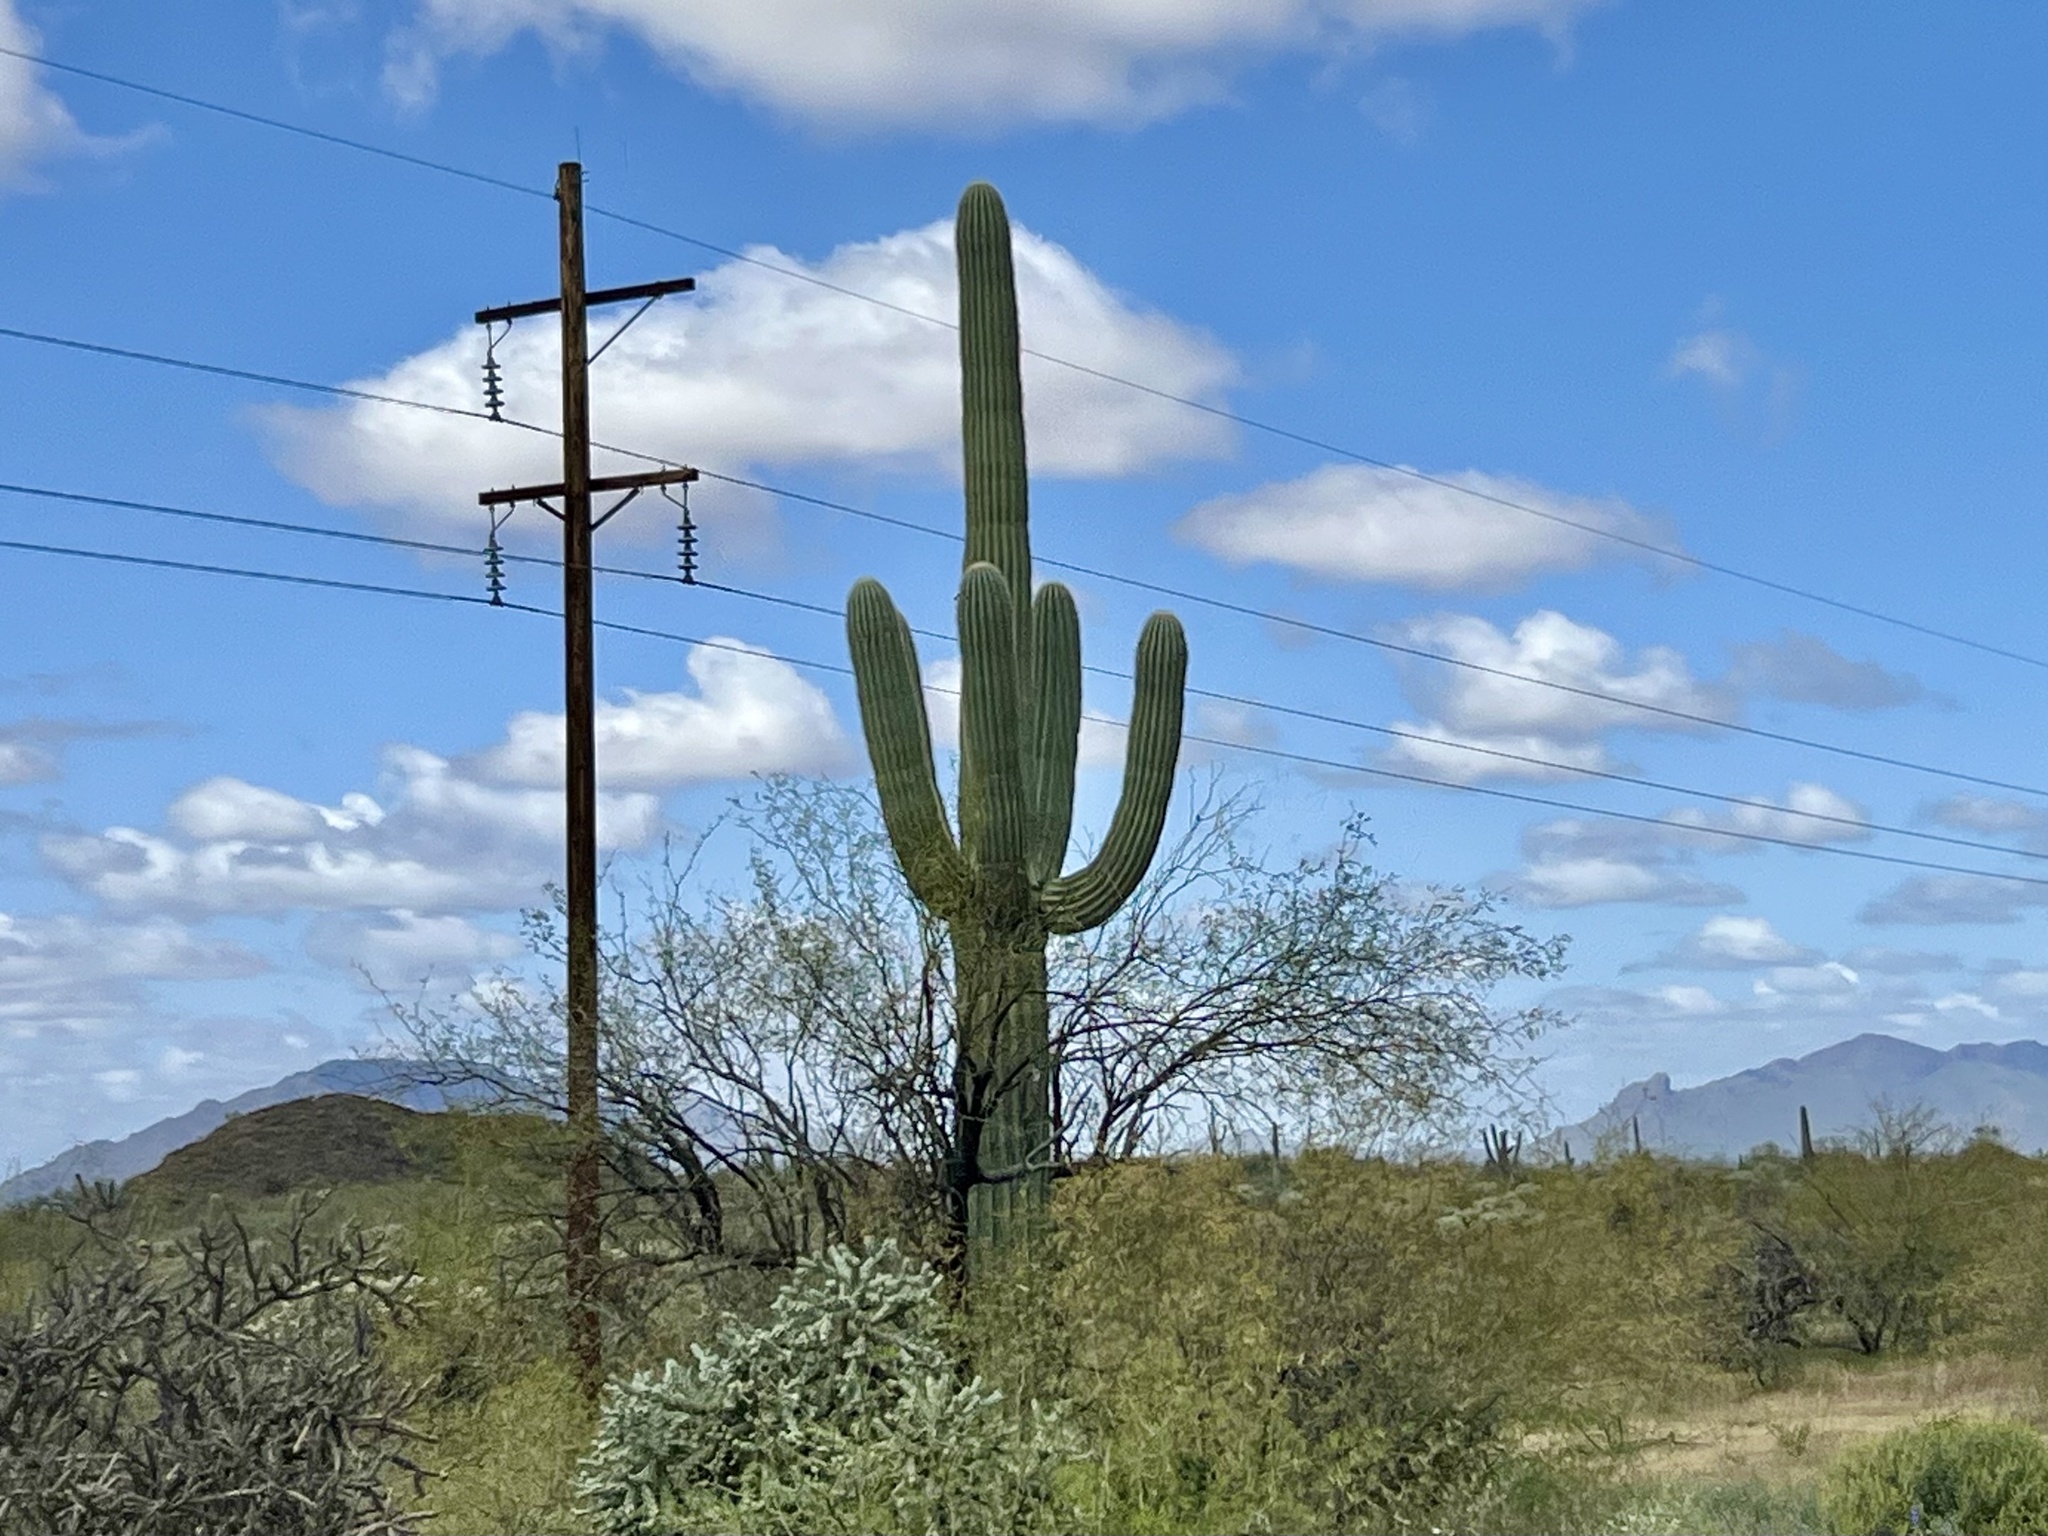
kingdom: Plantae
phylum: Tracheophyta
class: Magnoliopsida
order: Caryophyllales
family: Cactaceae
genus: Carnegiea
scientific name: Carnegiea gigantea
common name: Saguaro
